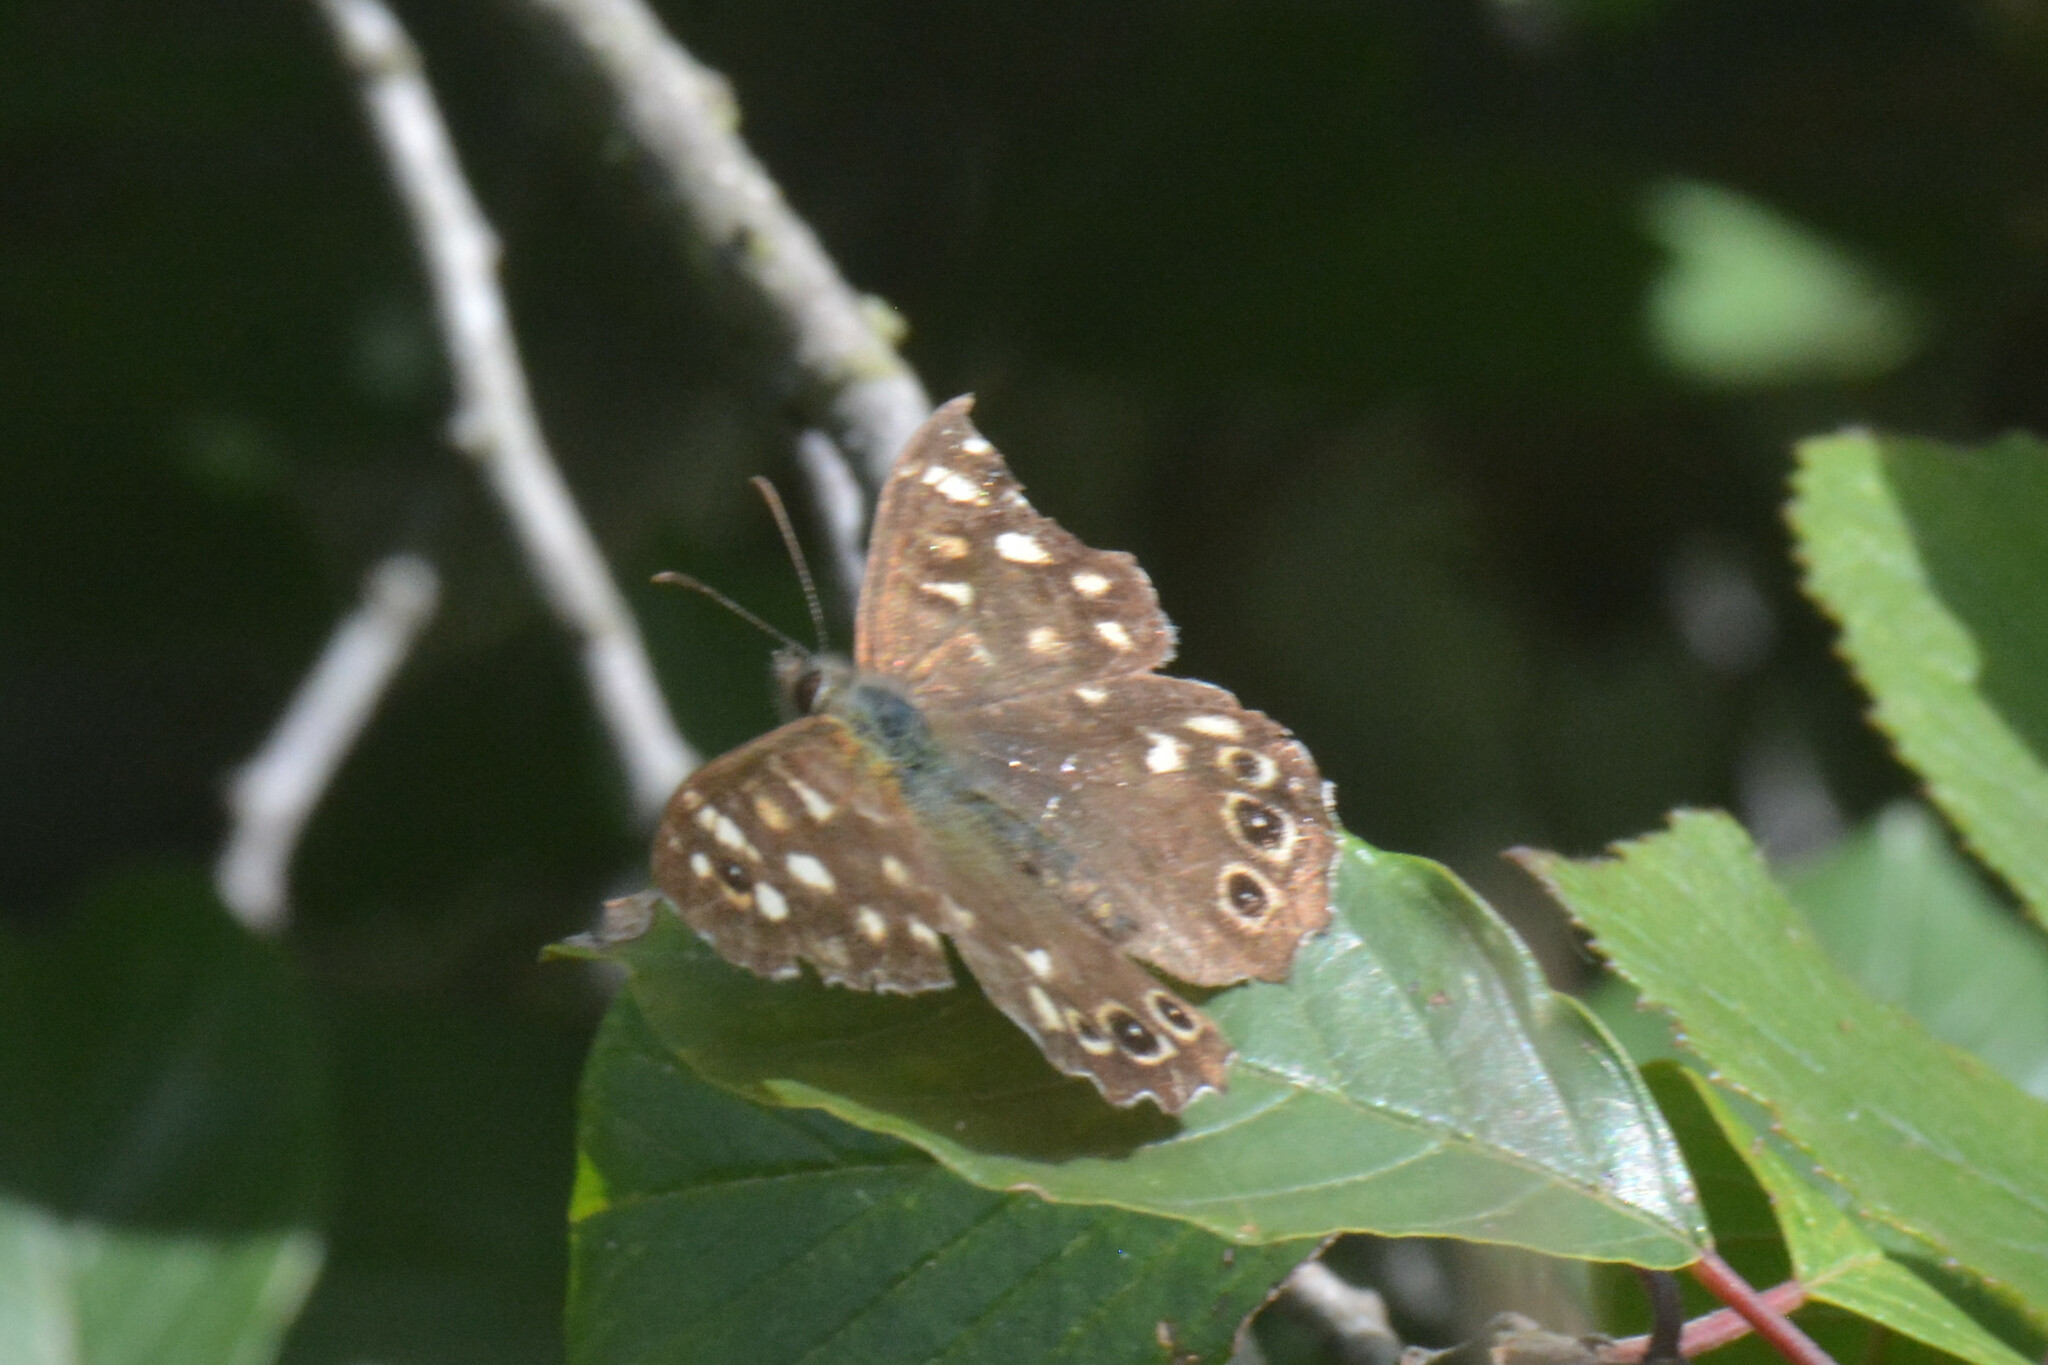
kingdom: Animalia
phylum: Arthropoda
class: Insecta
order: Lepidoptera
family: Nymphalidae
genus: Pararge
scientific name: Pararge aegeria
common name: Speckled wood
